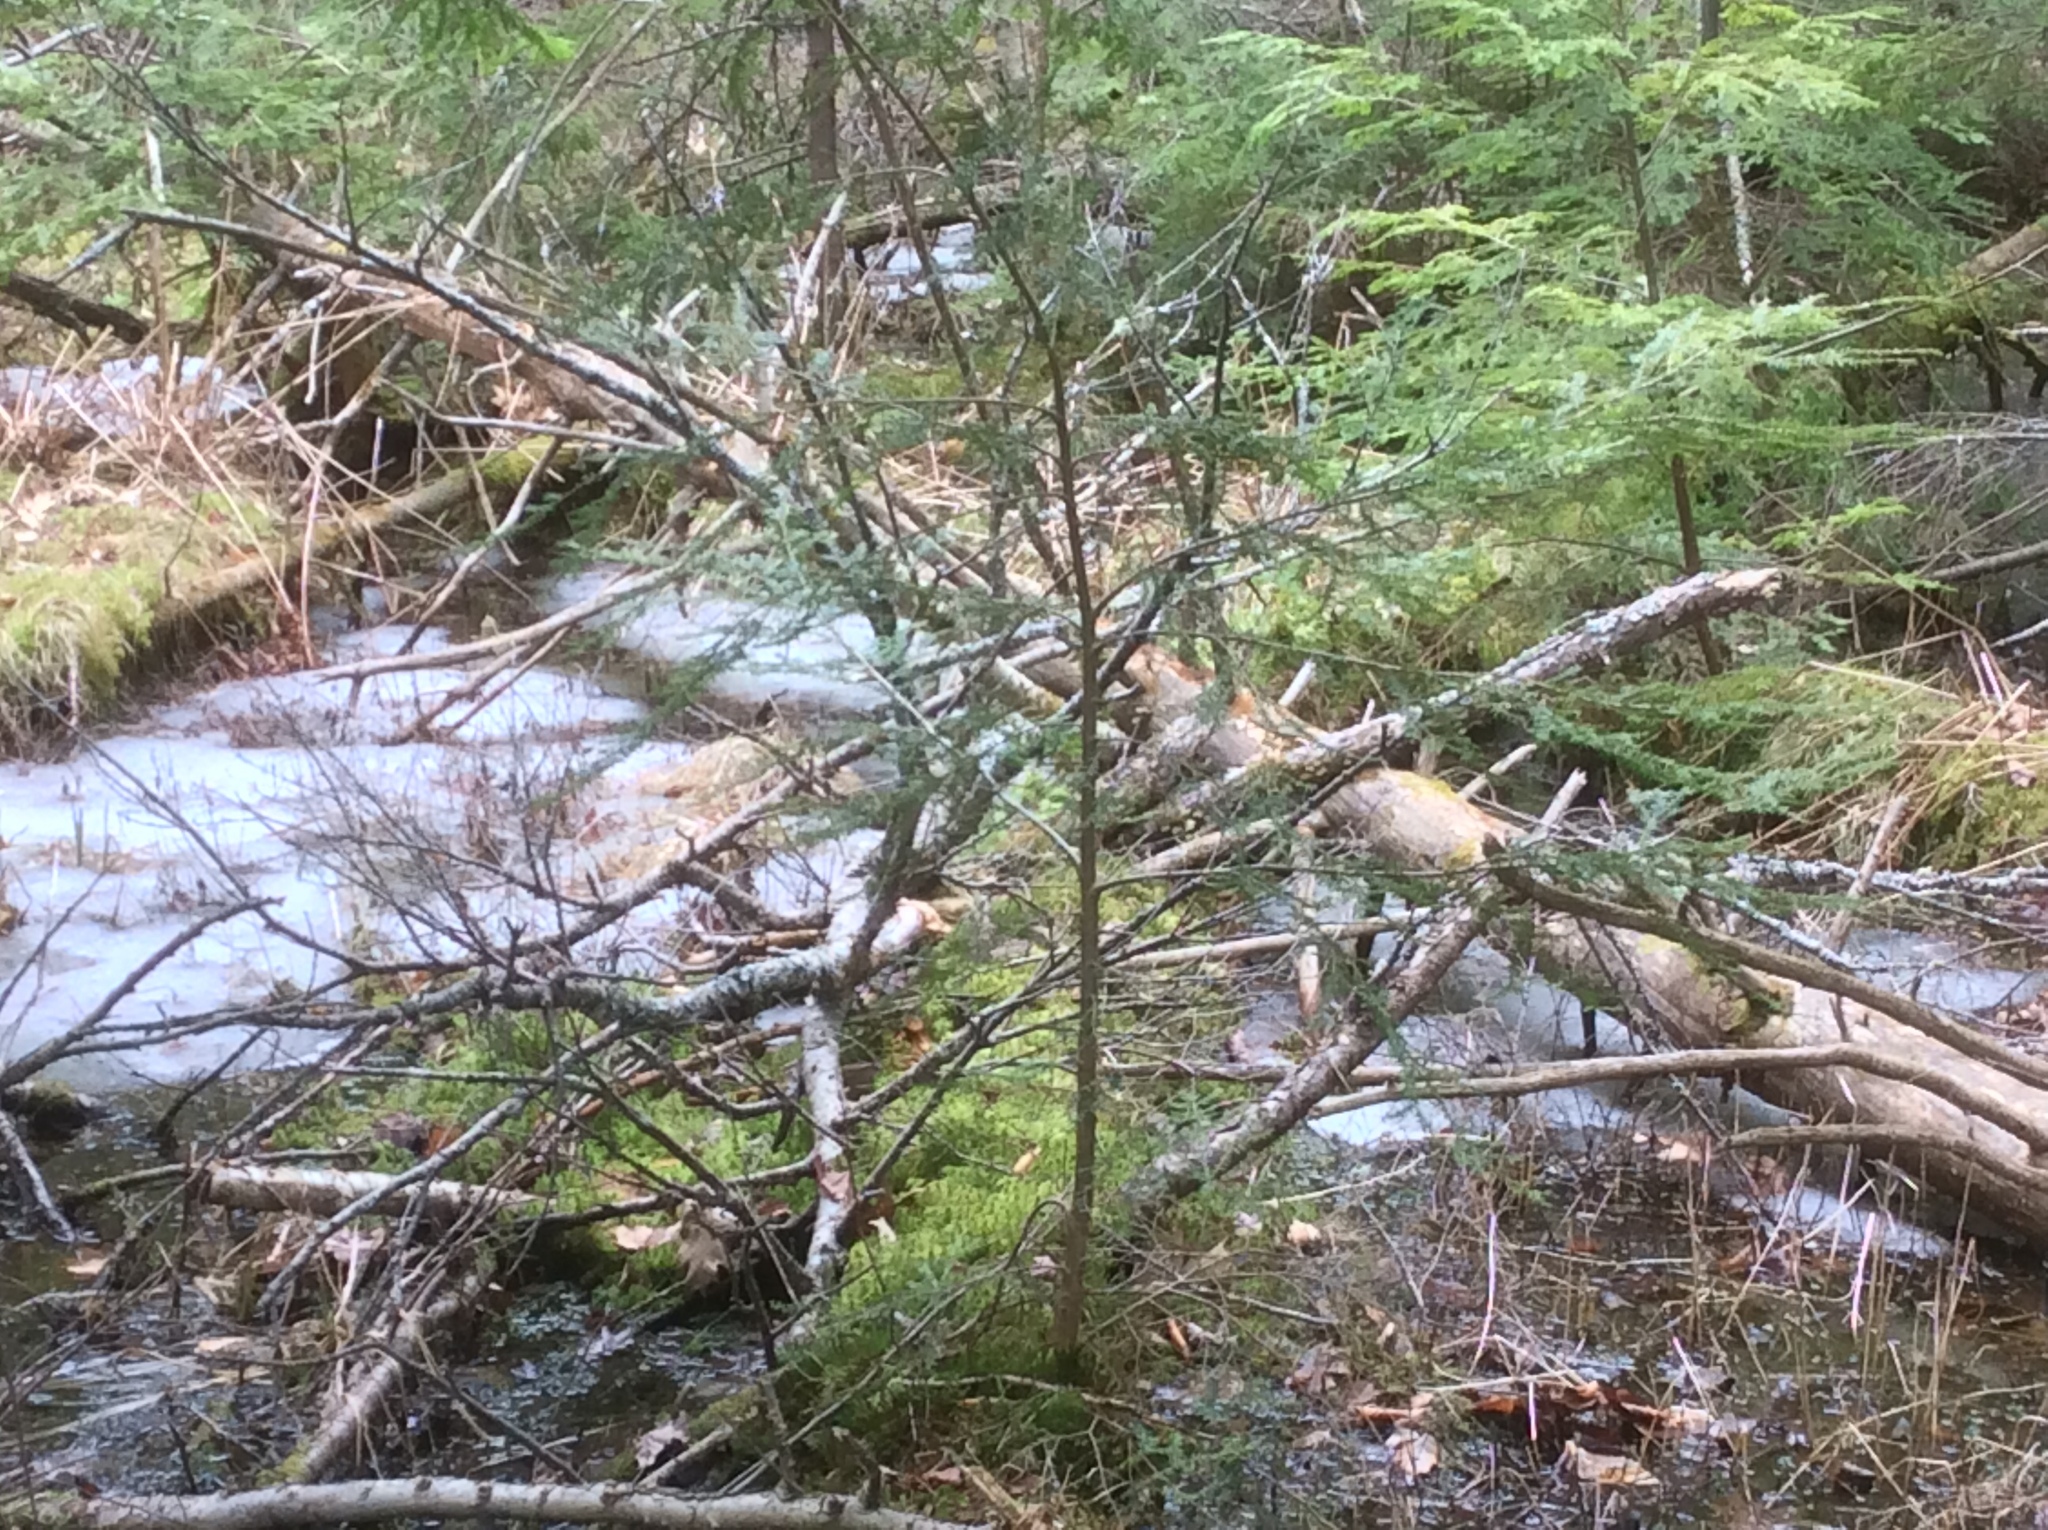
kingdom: Plantae
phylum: Tracheophyta
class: Pinopsida
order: Pinales
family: Pinaceae
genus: Tsuga
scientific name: Tsuga canadensis
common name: Eastern hemlock
